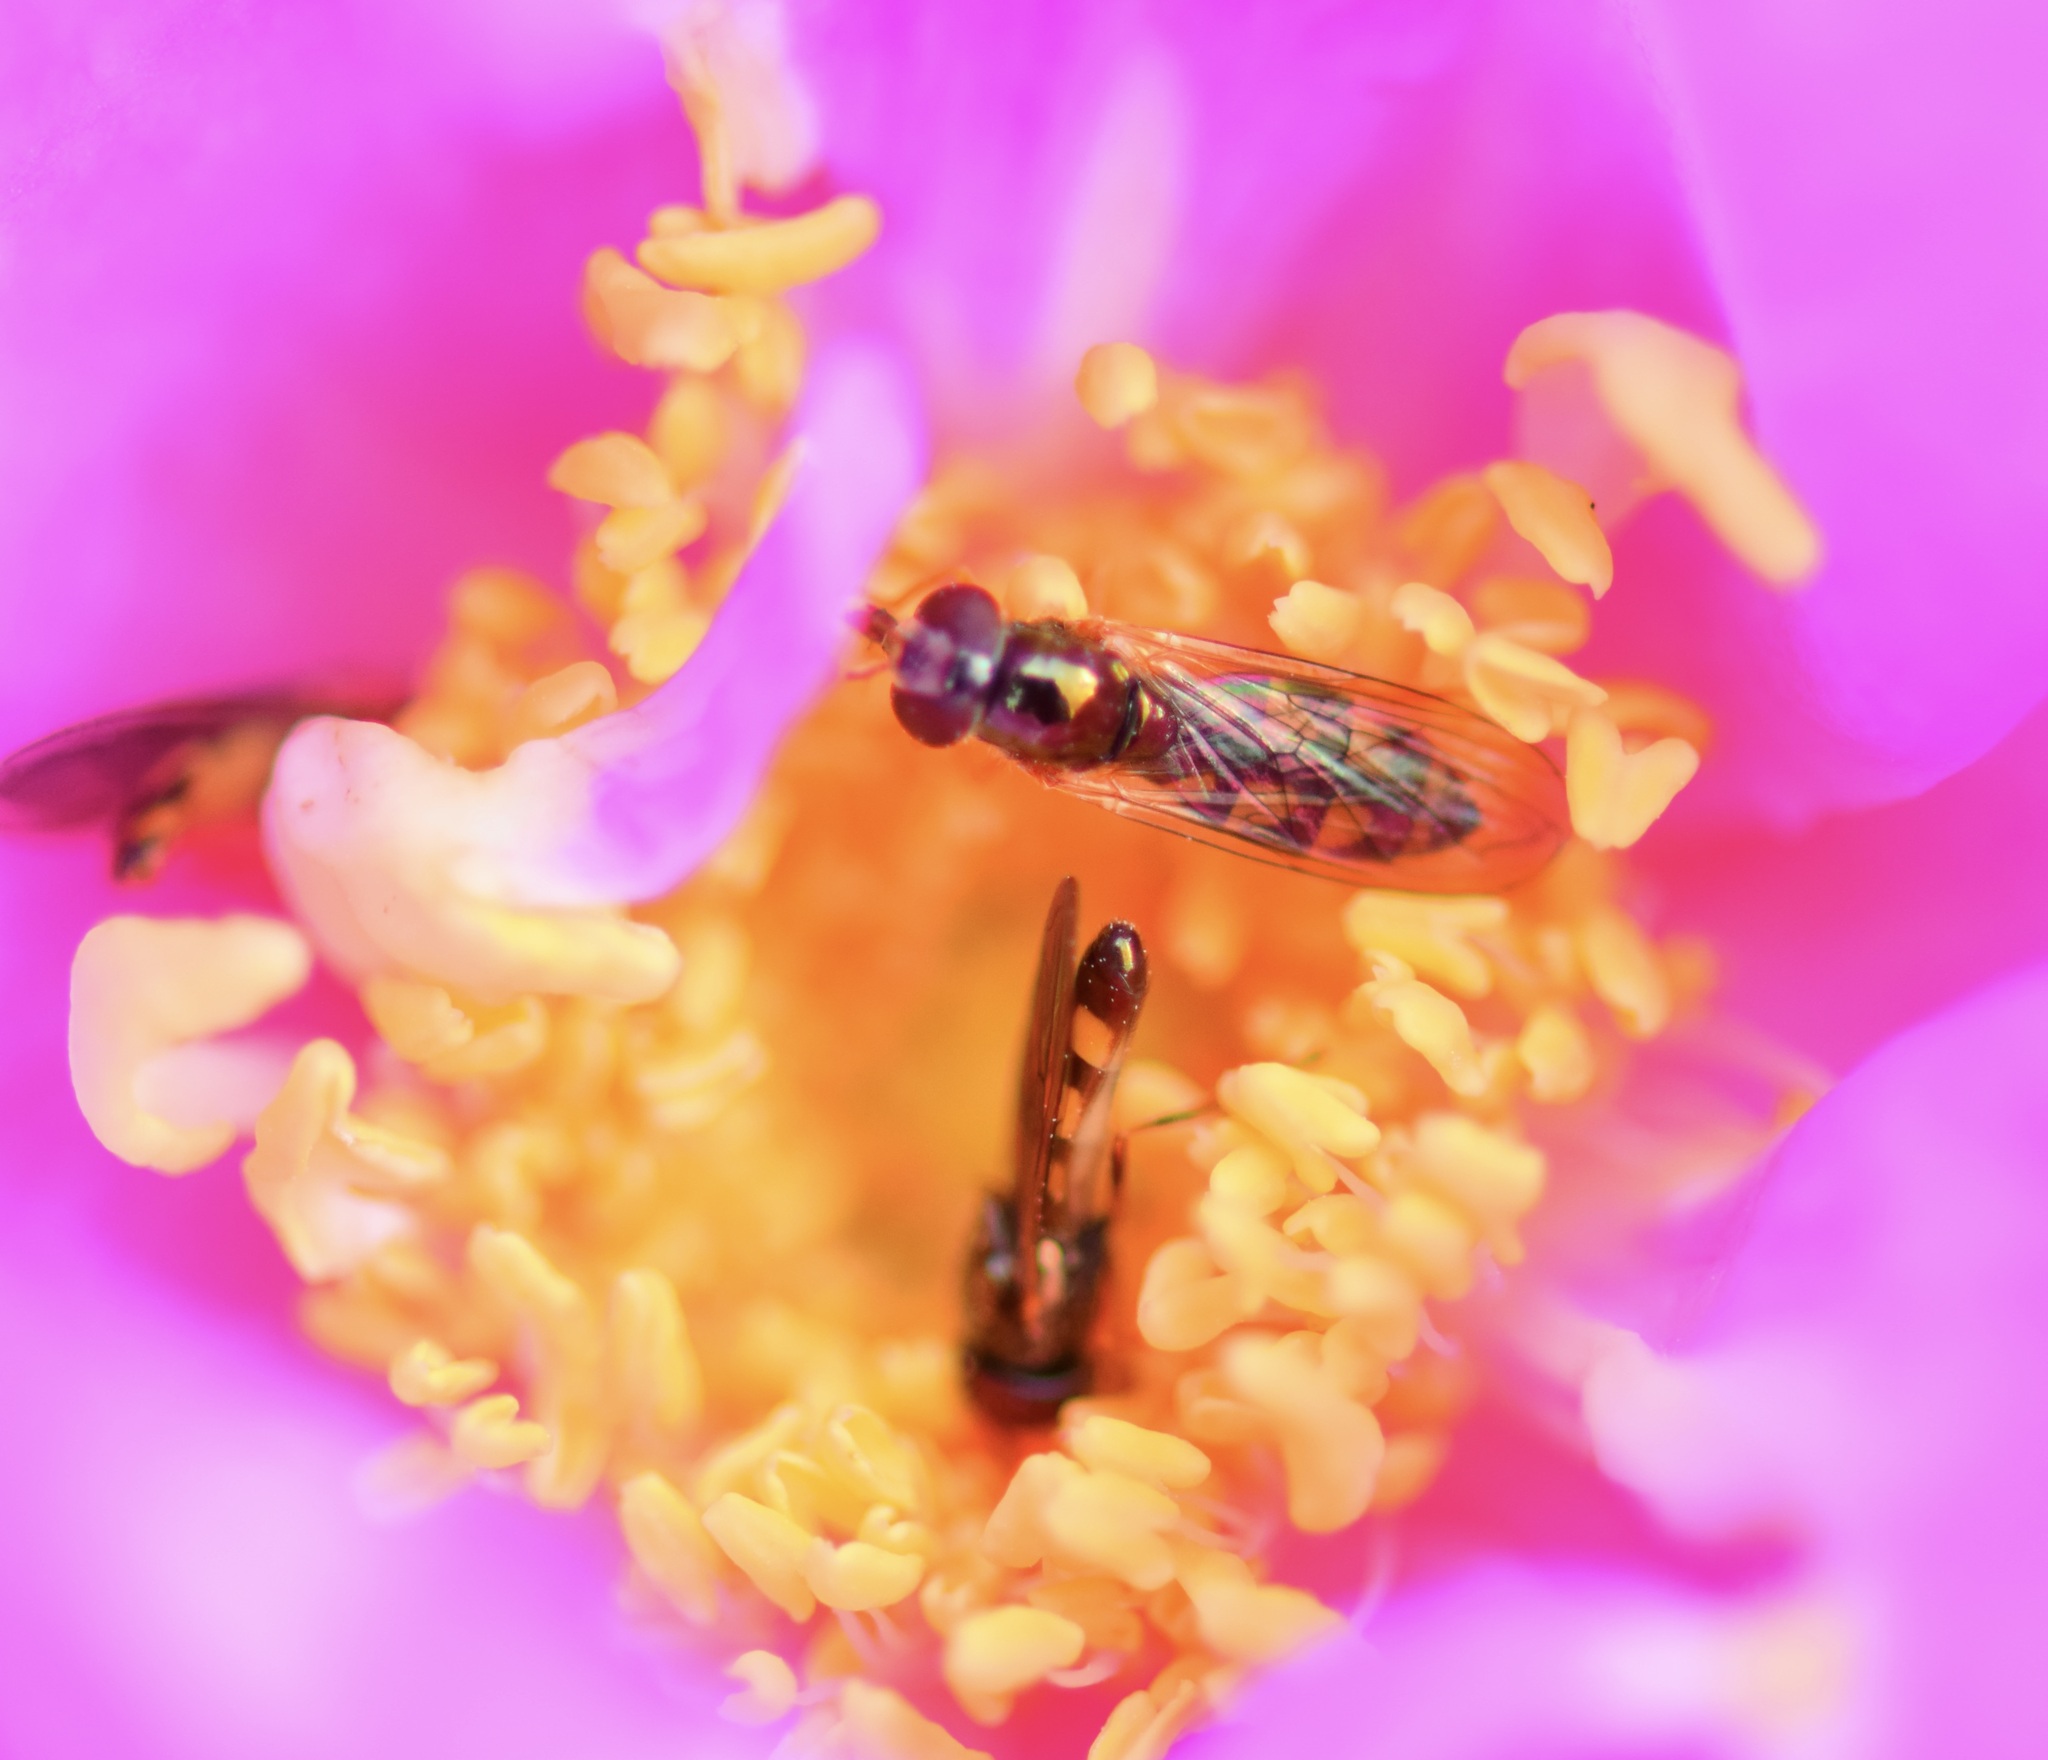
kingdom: Animalia
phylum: Arthropoda
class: Insecta
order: Diptera
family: Syrphidae
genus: Melanostoma
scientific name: Melanostoma mellina
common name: Hover fly
